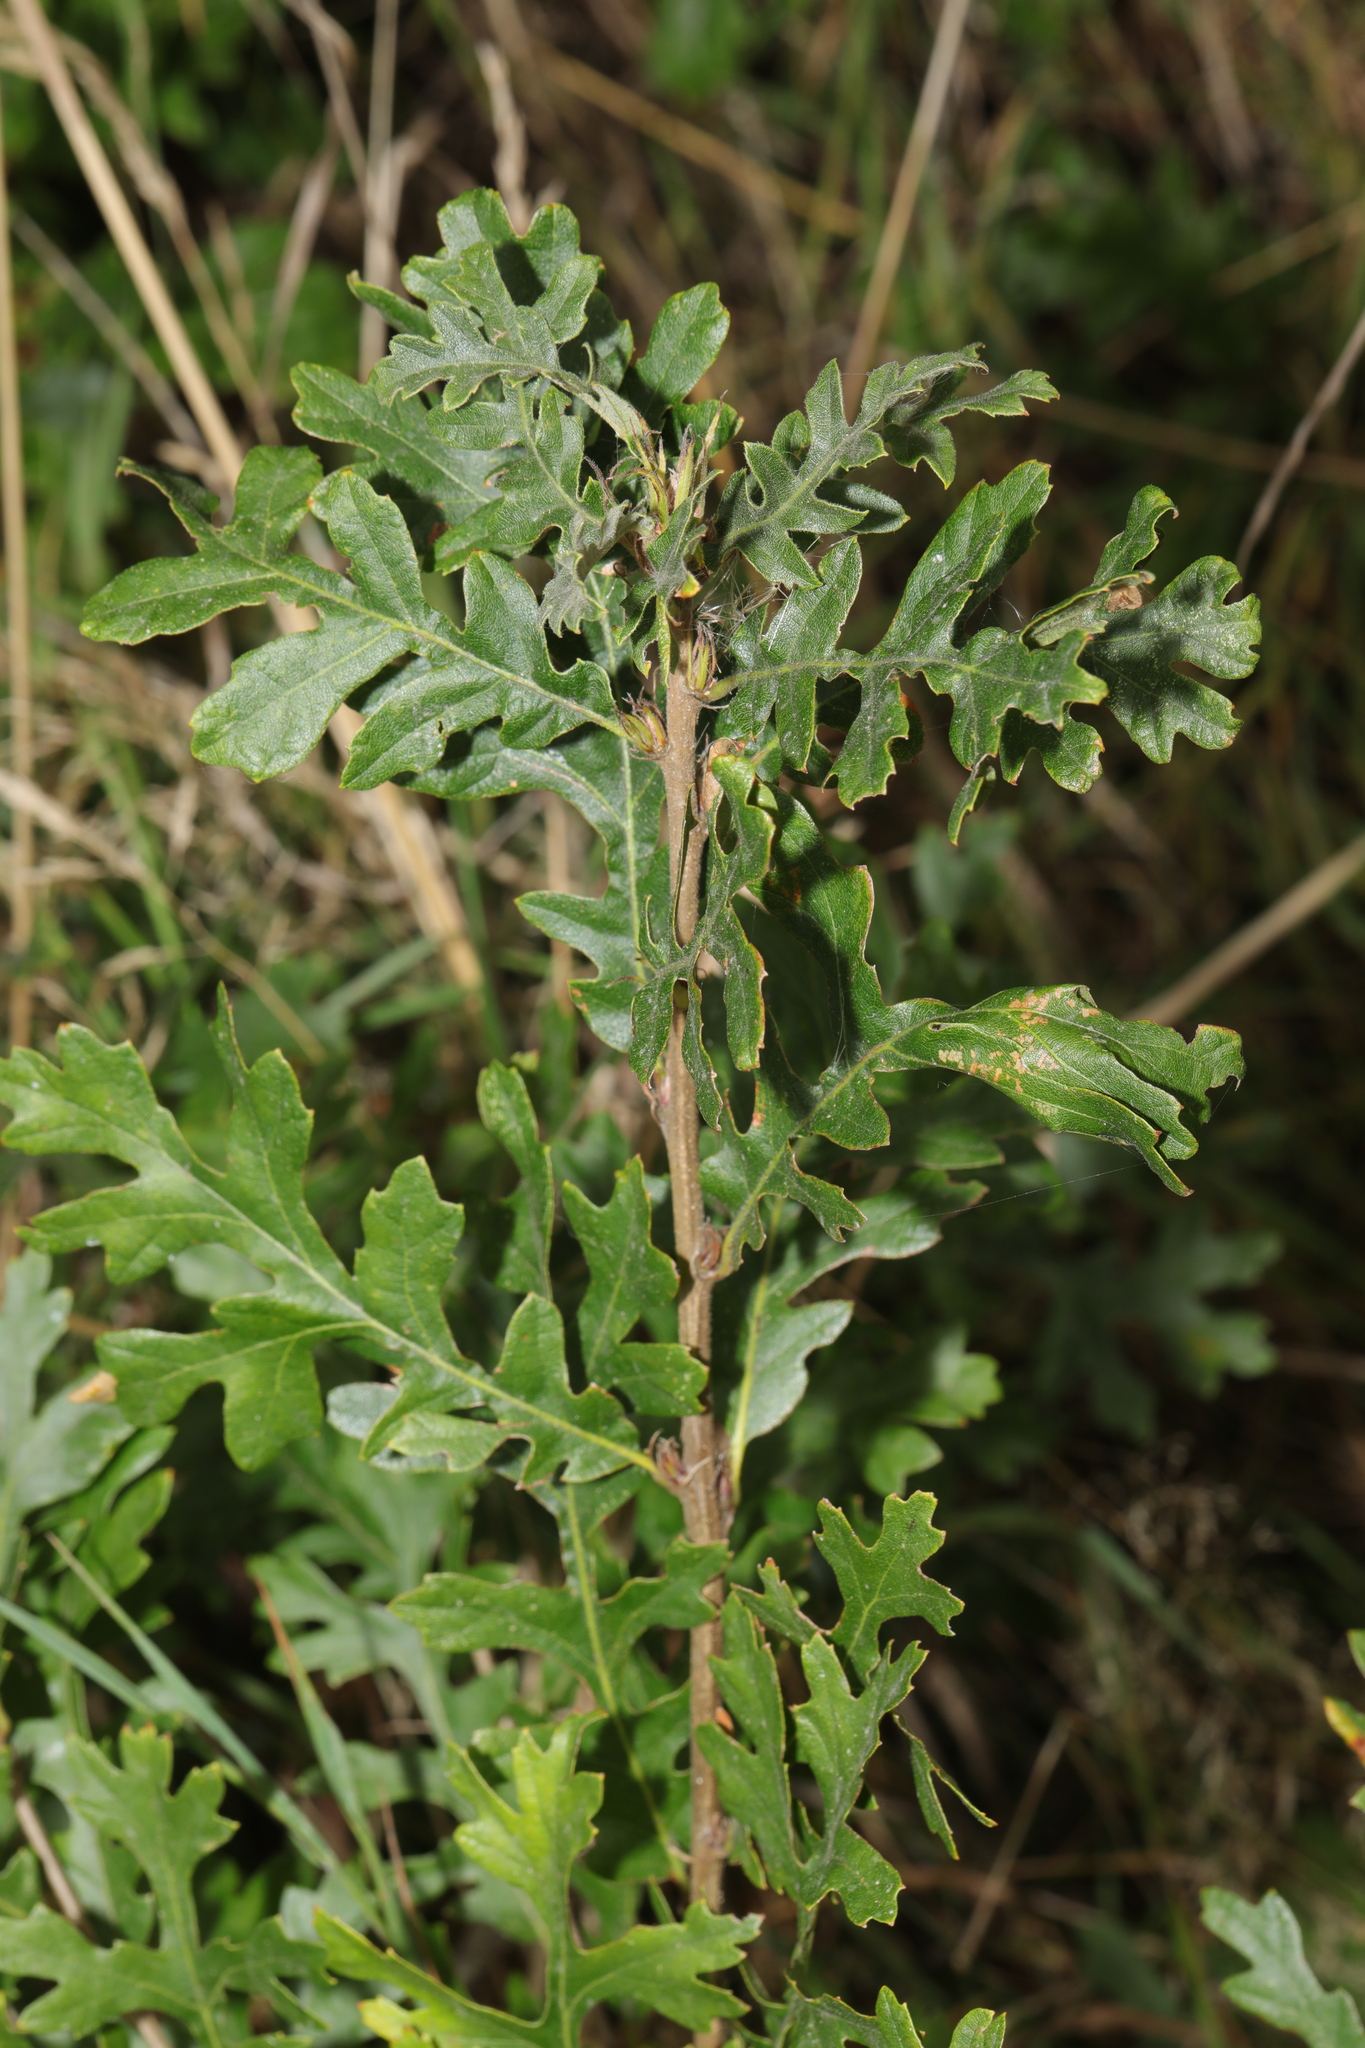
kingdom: Plantae
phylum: Tracheophyta
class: Magnoliopsida
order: Fagales
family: Fagaceae
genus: Quercus
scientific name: Quercus cerris
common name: Turkey oak
